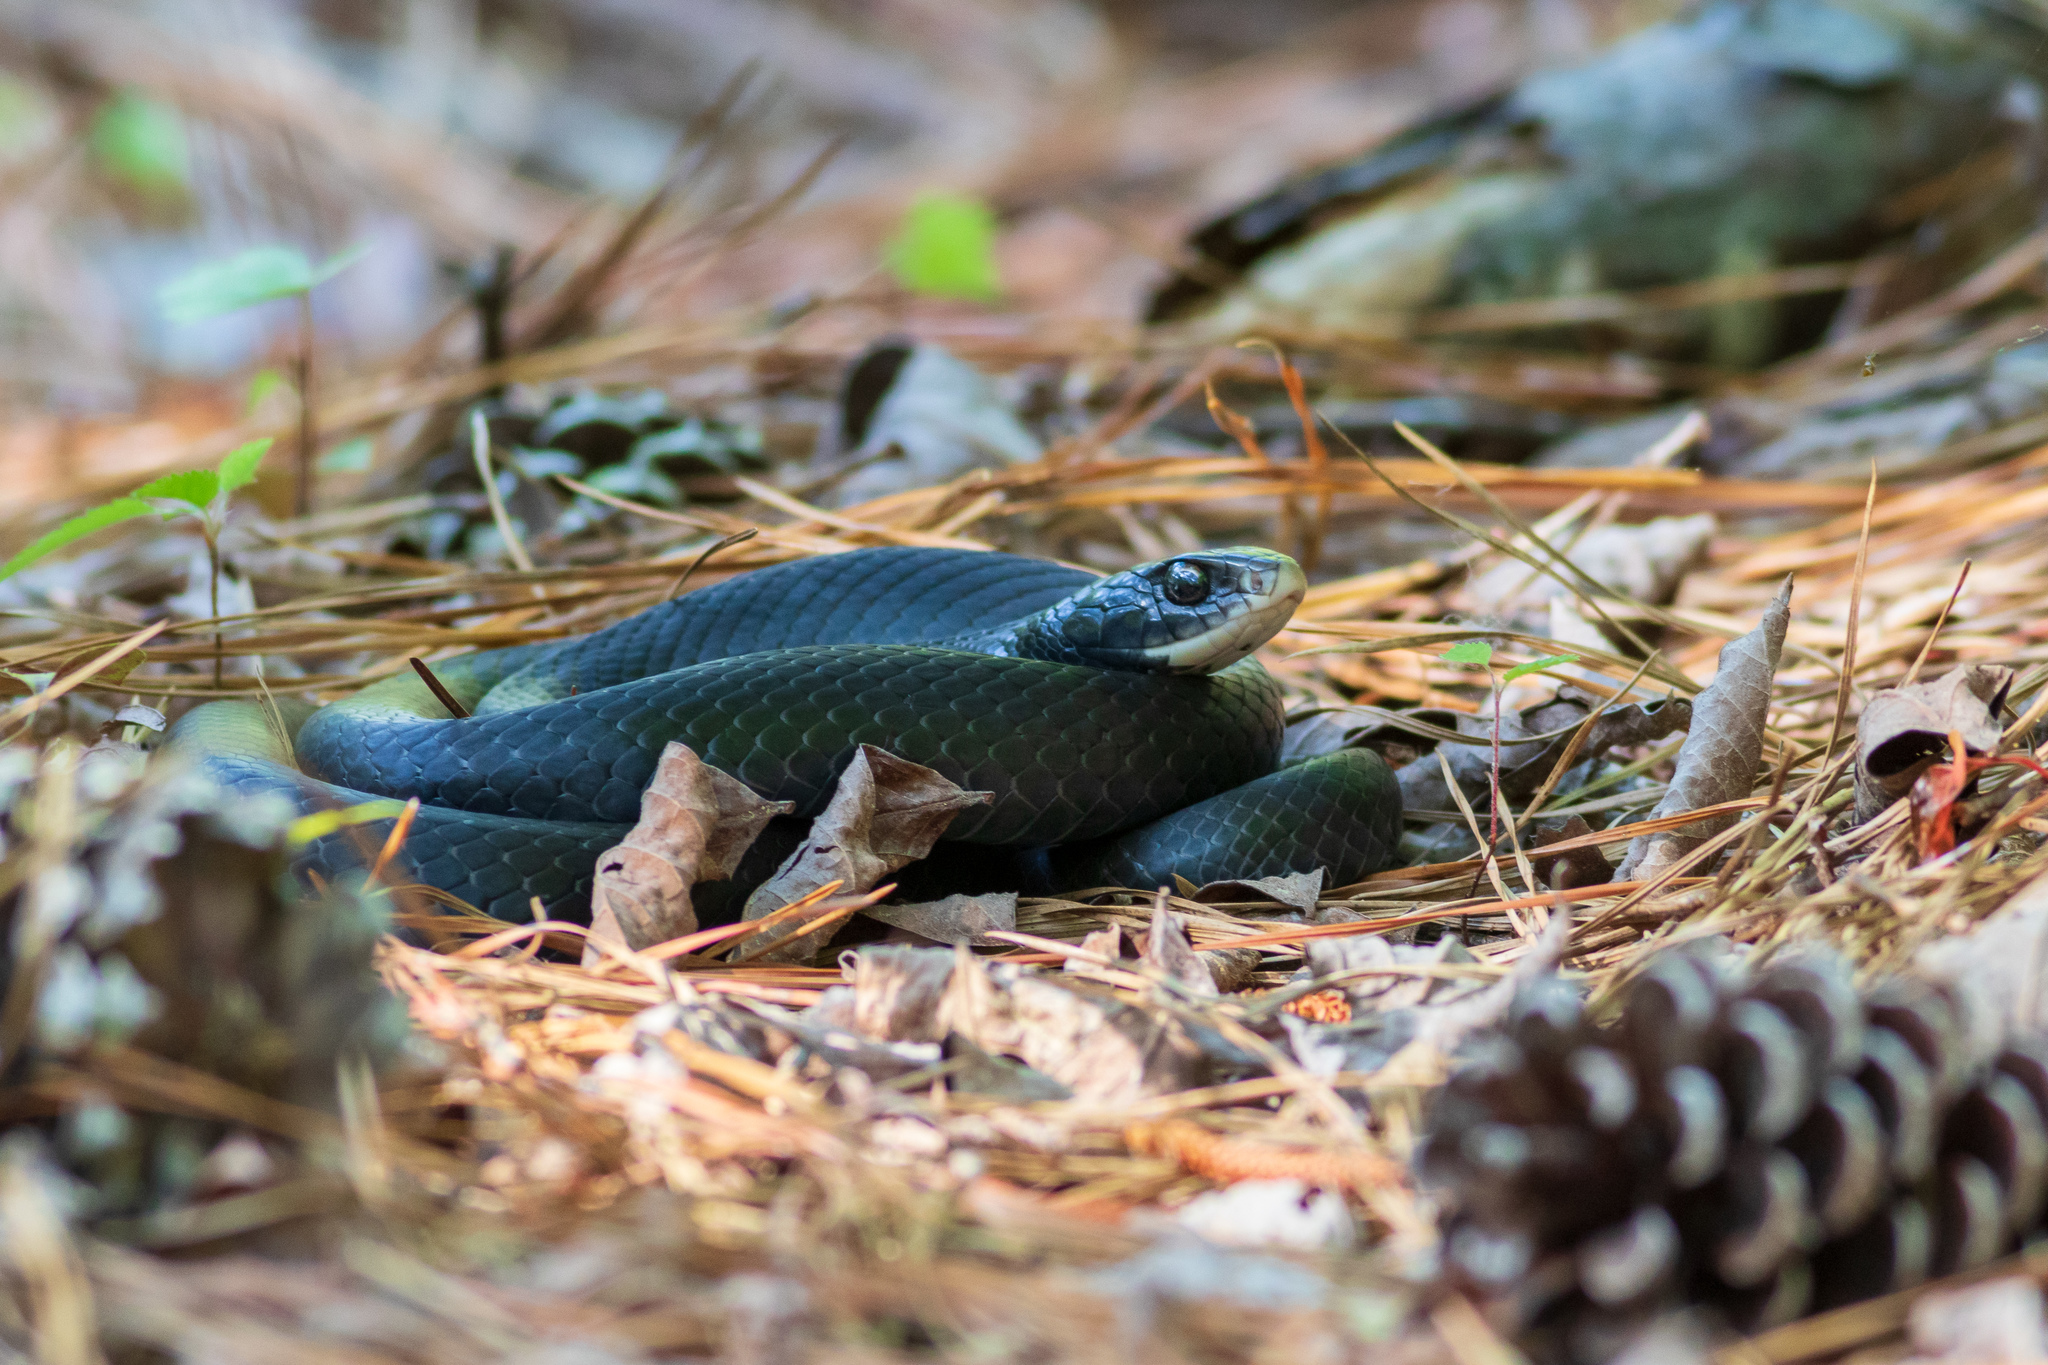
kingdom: Animalia
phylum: Chordata
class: Squamata
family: Colubridae
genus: Coluber
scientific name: Coluber constrictor
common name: Eastern racer
